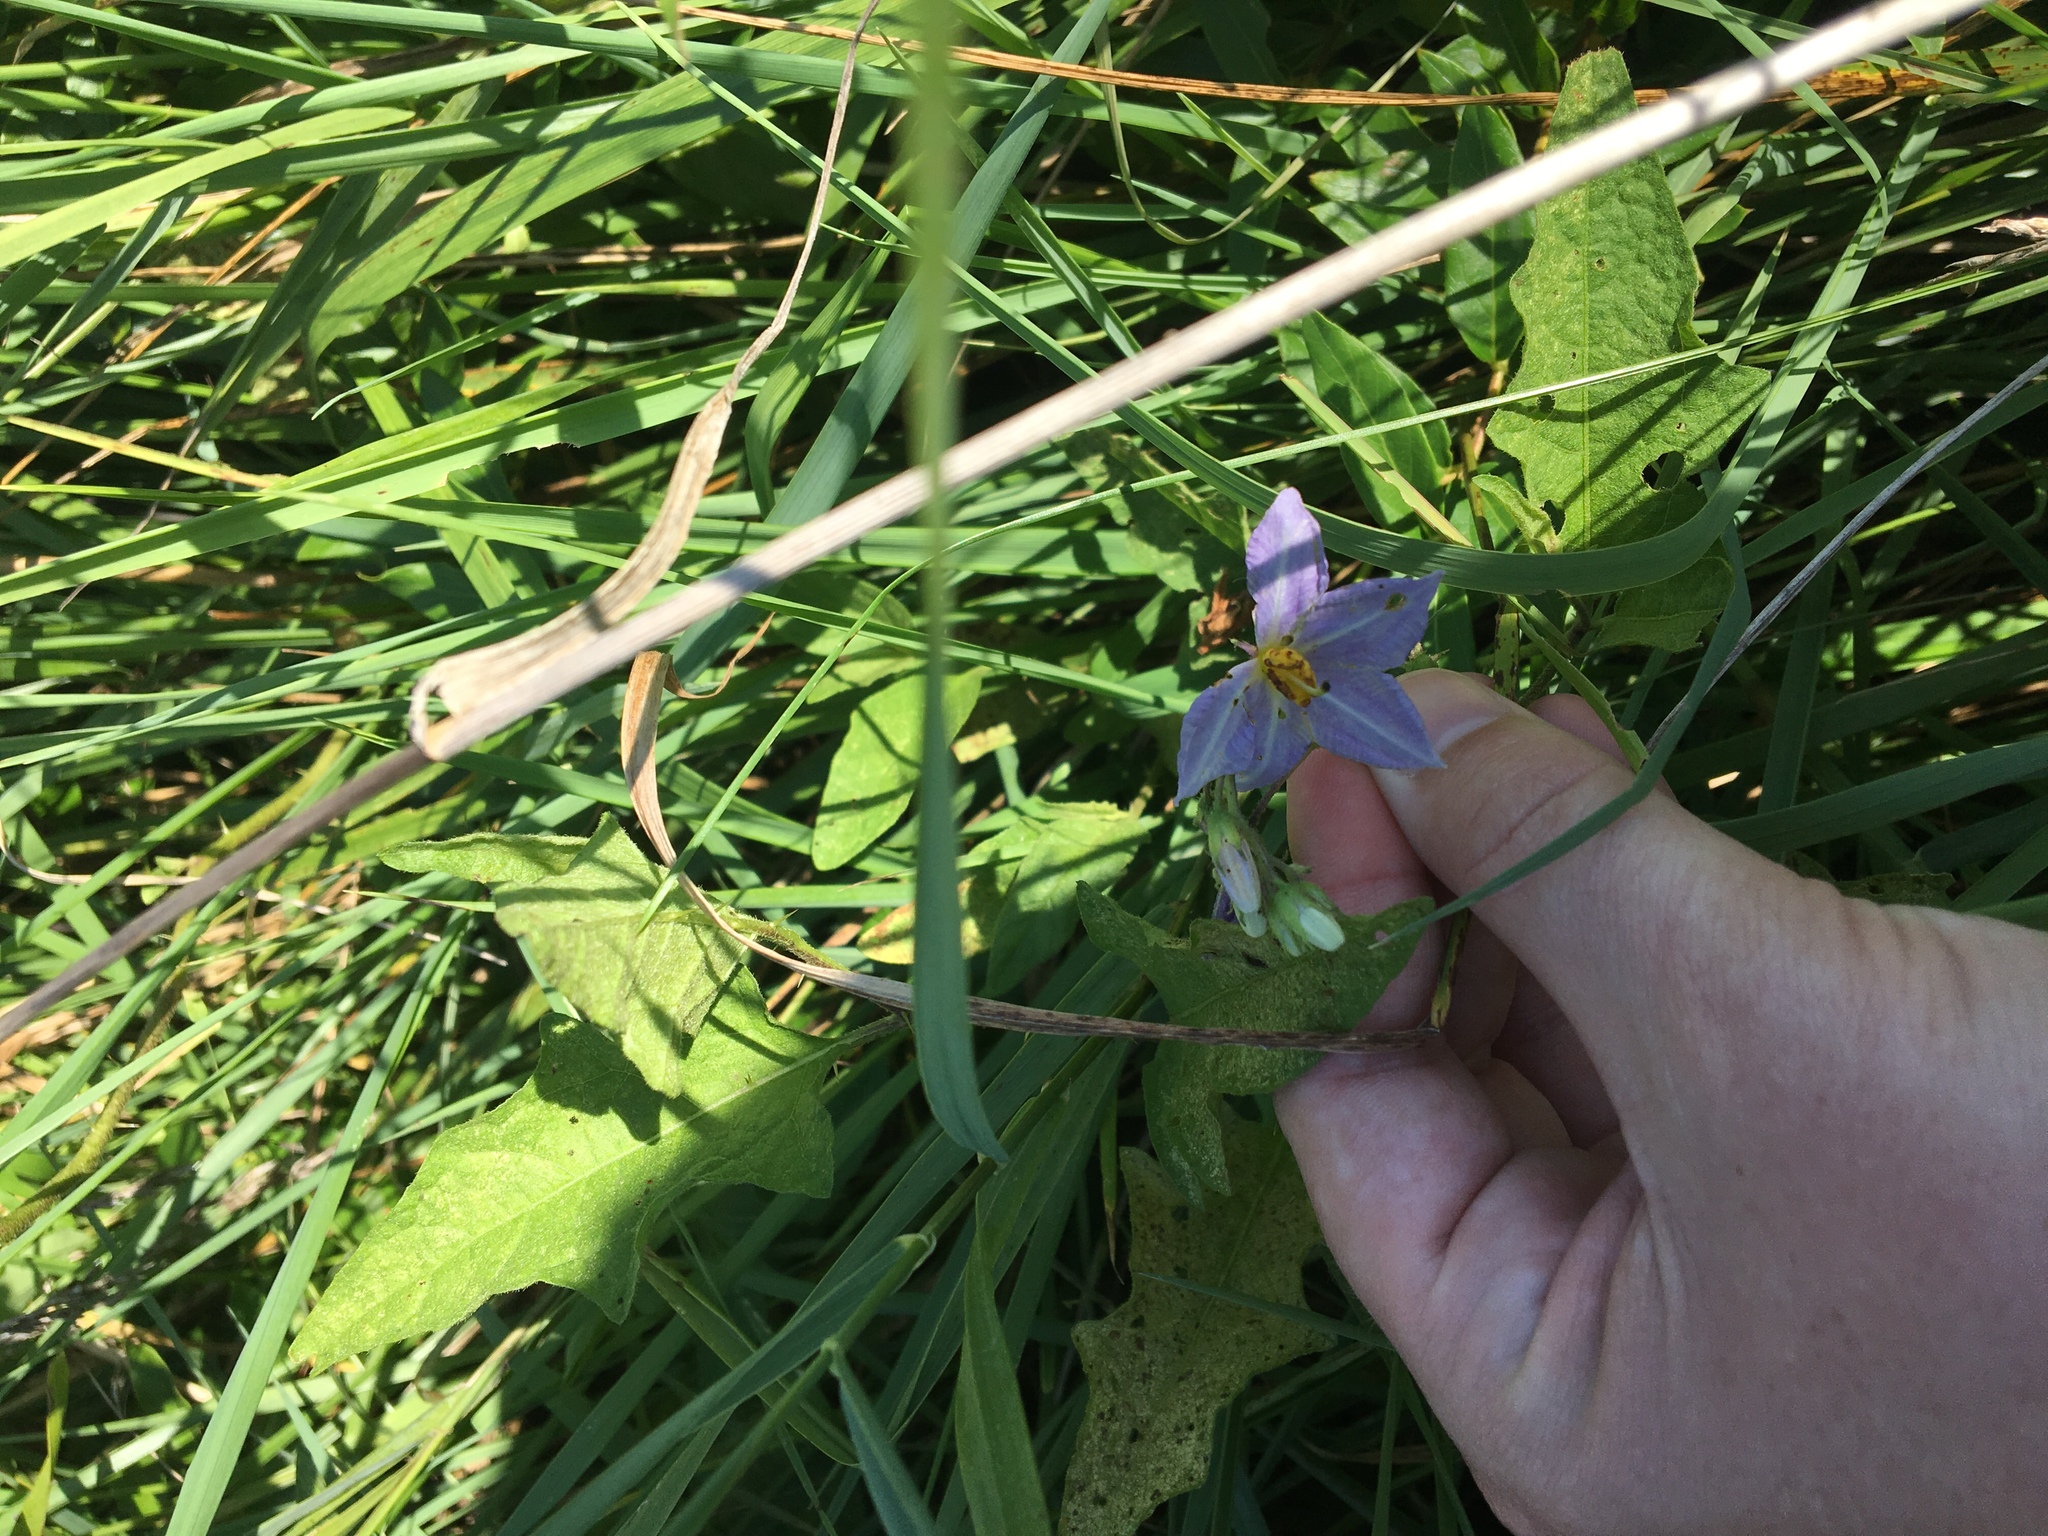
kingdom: Plantae
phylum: Tracheophyta
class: Magnoliopsida
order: Solanales
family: Solanaceae
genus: Solanum
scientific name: Solanum carolinense
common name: Horse-nettle
